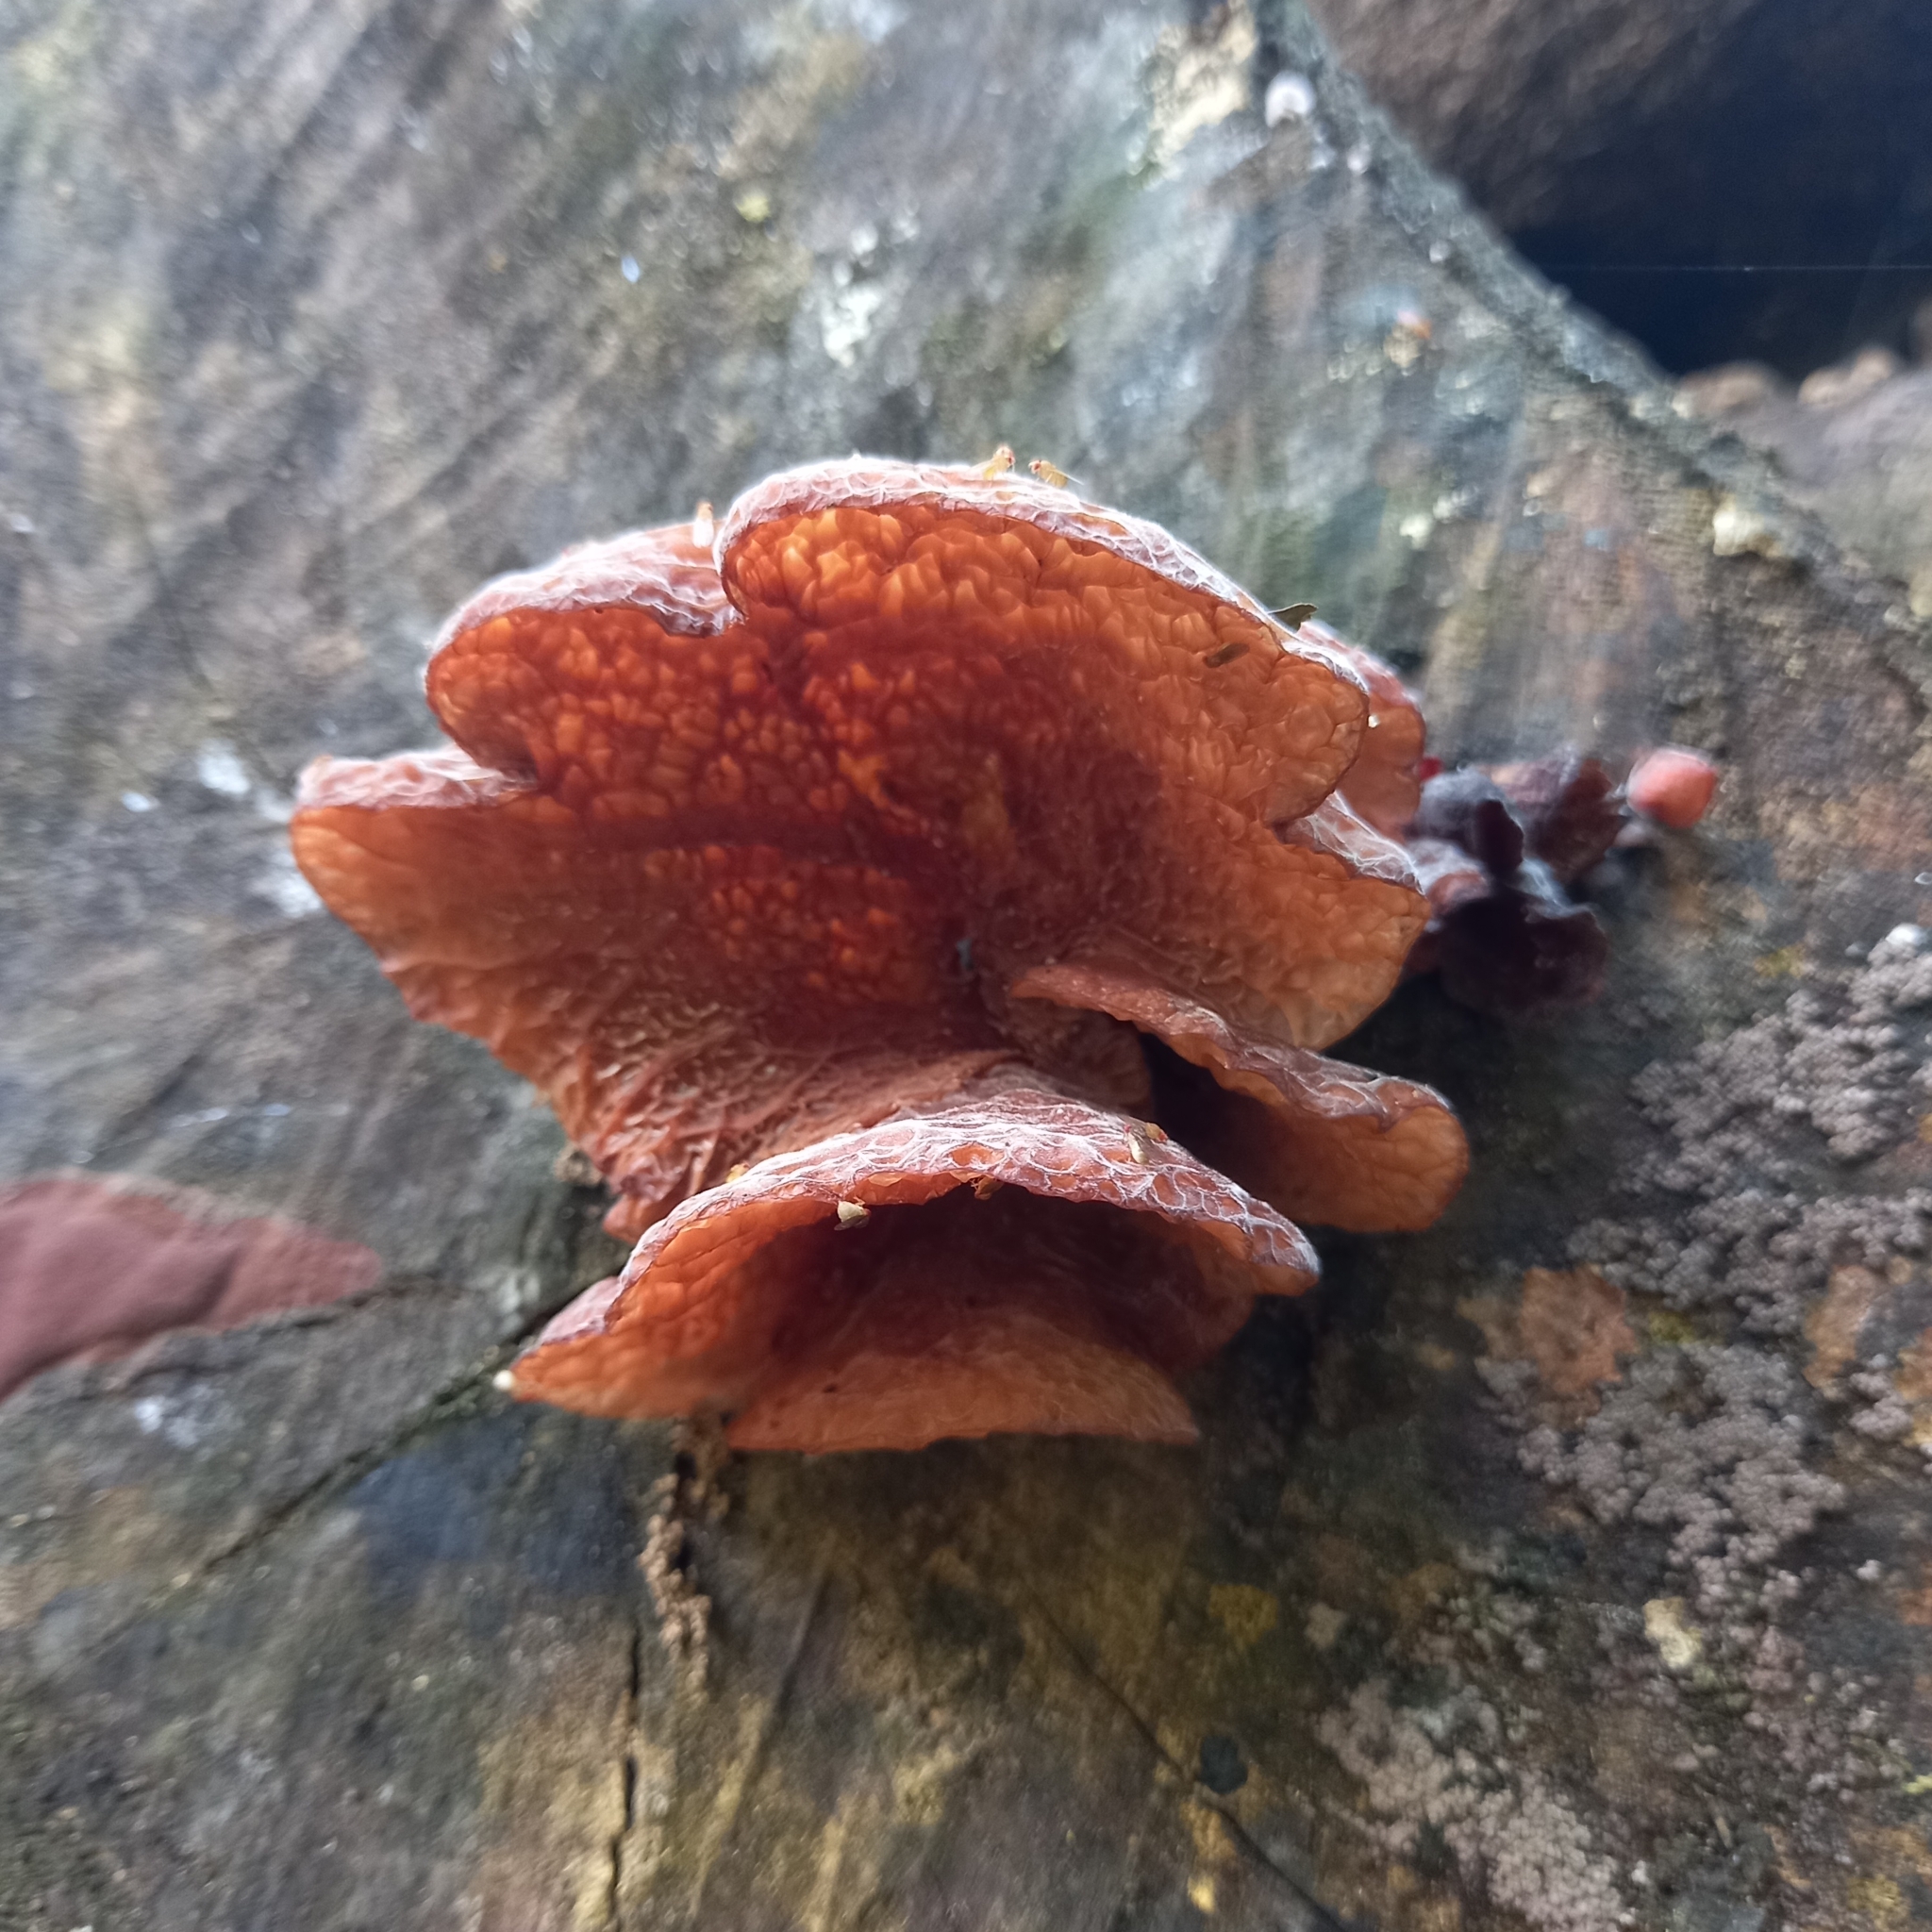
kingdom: Fungi
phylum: Basidiomycota
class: Agaricomycetes
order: Auriculariales
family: Auriculariaceae
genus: Auricularia
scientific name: Auricularia delicata
